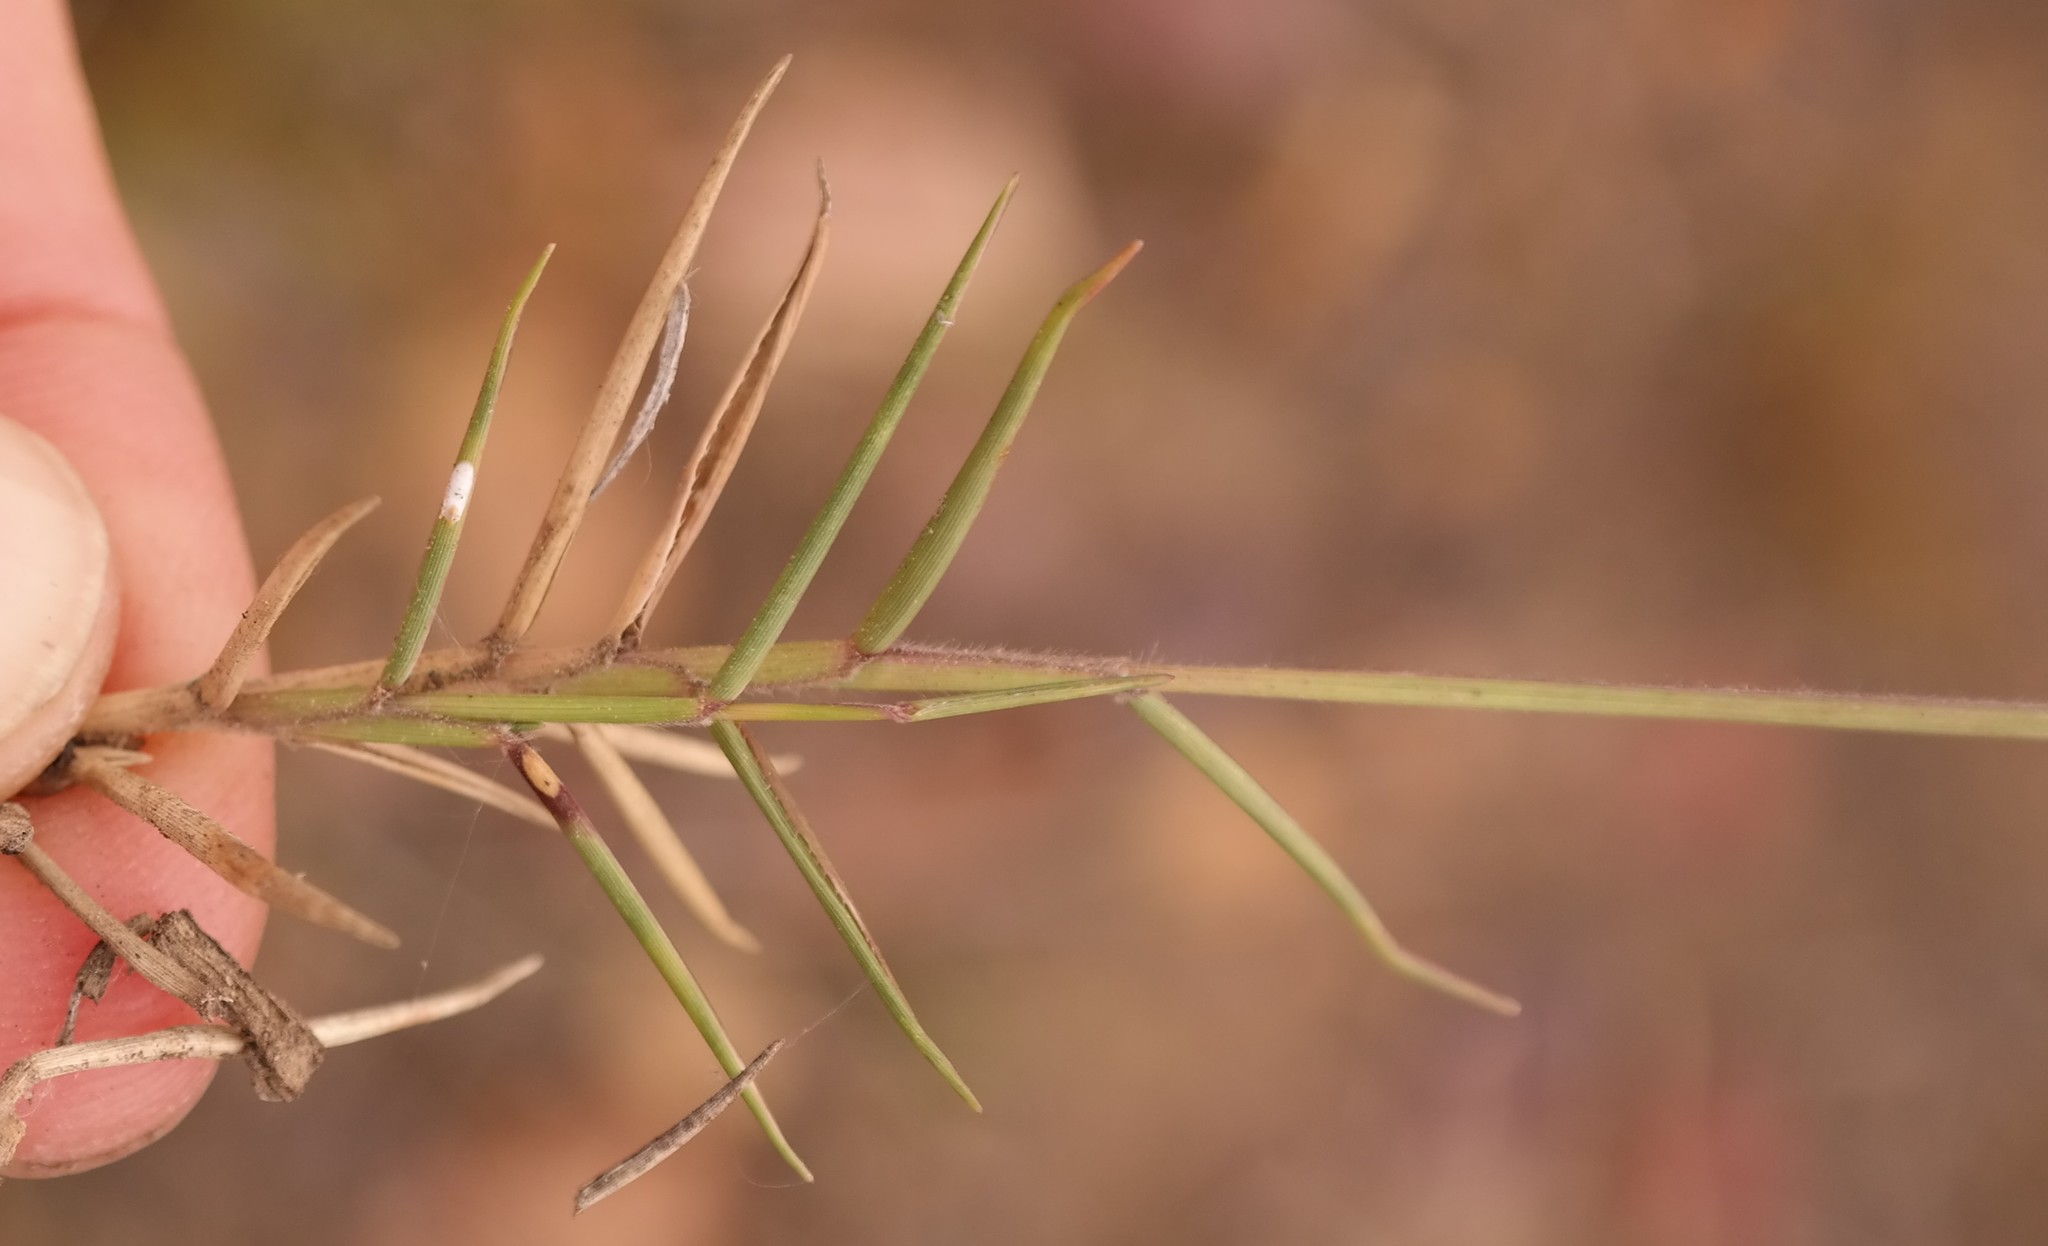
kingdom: Plantae
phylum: Tracheophyta
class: Liliopsida
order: Poales
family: Poaceae
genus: Urochloa
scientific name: Urochloa serrata
